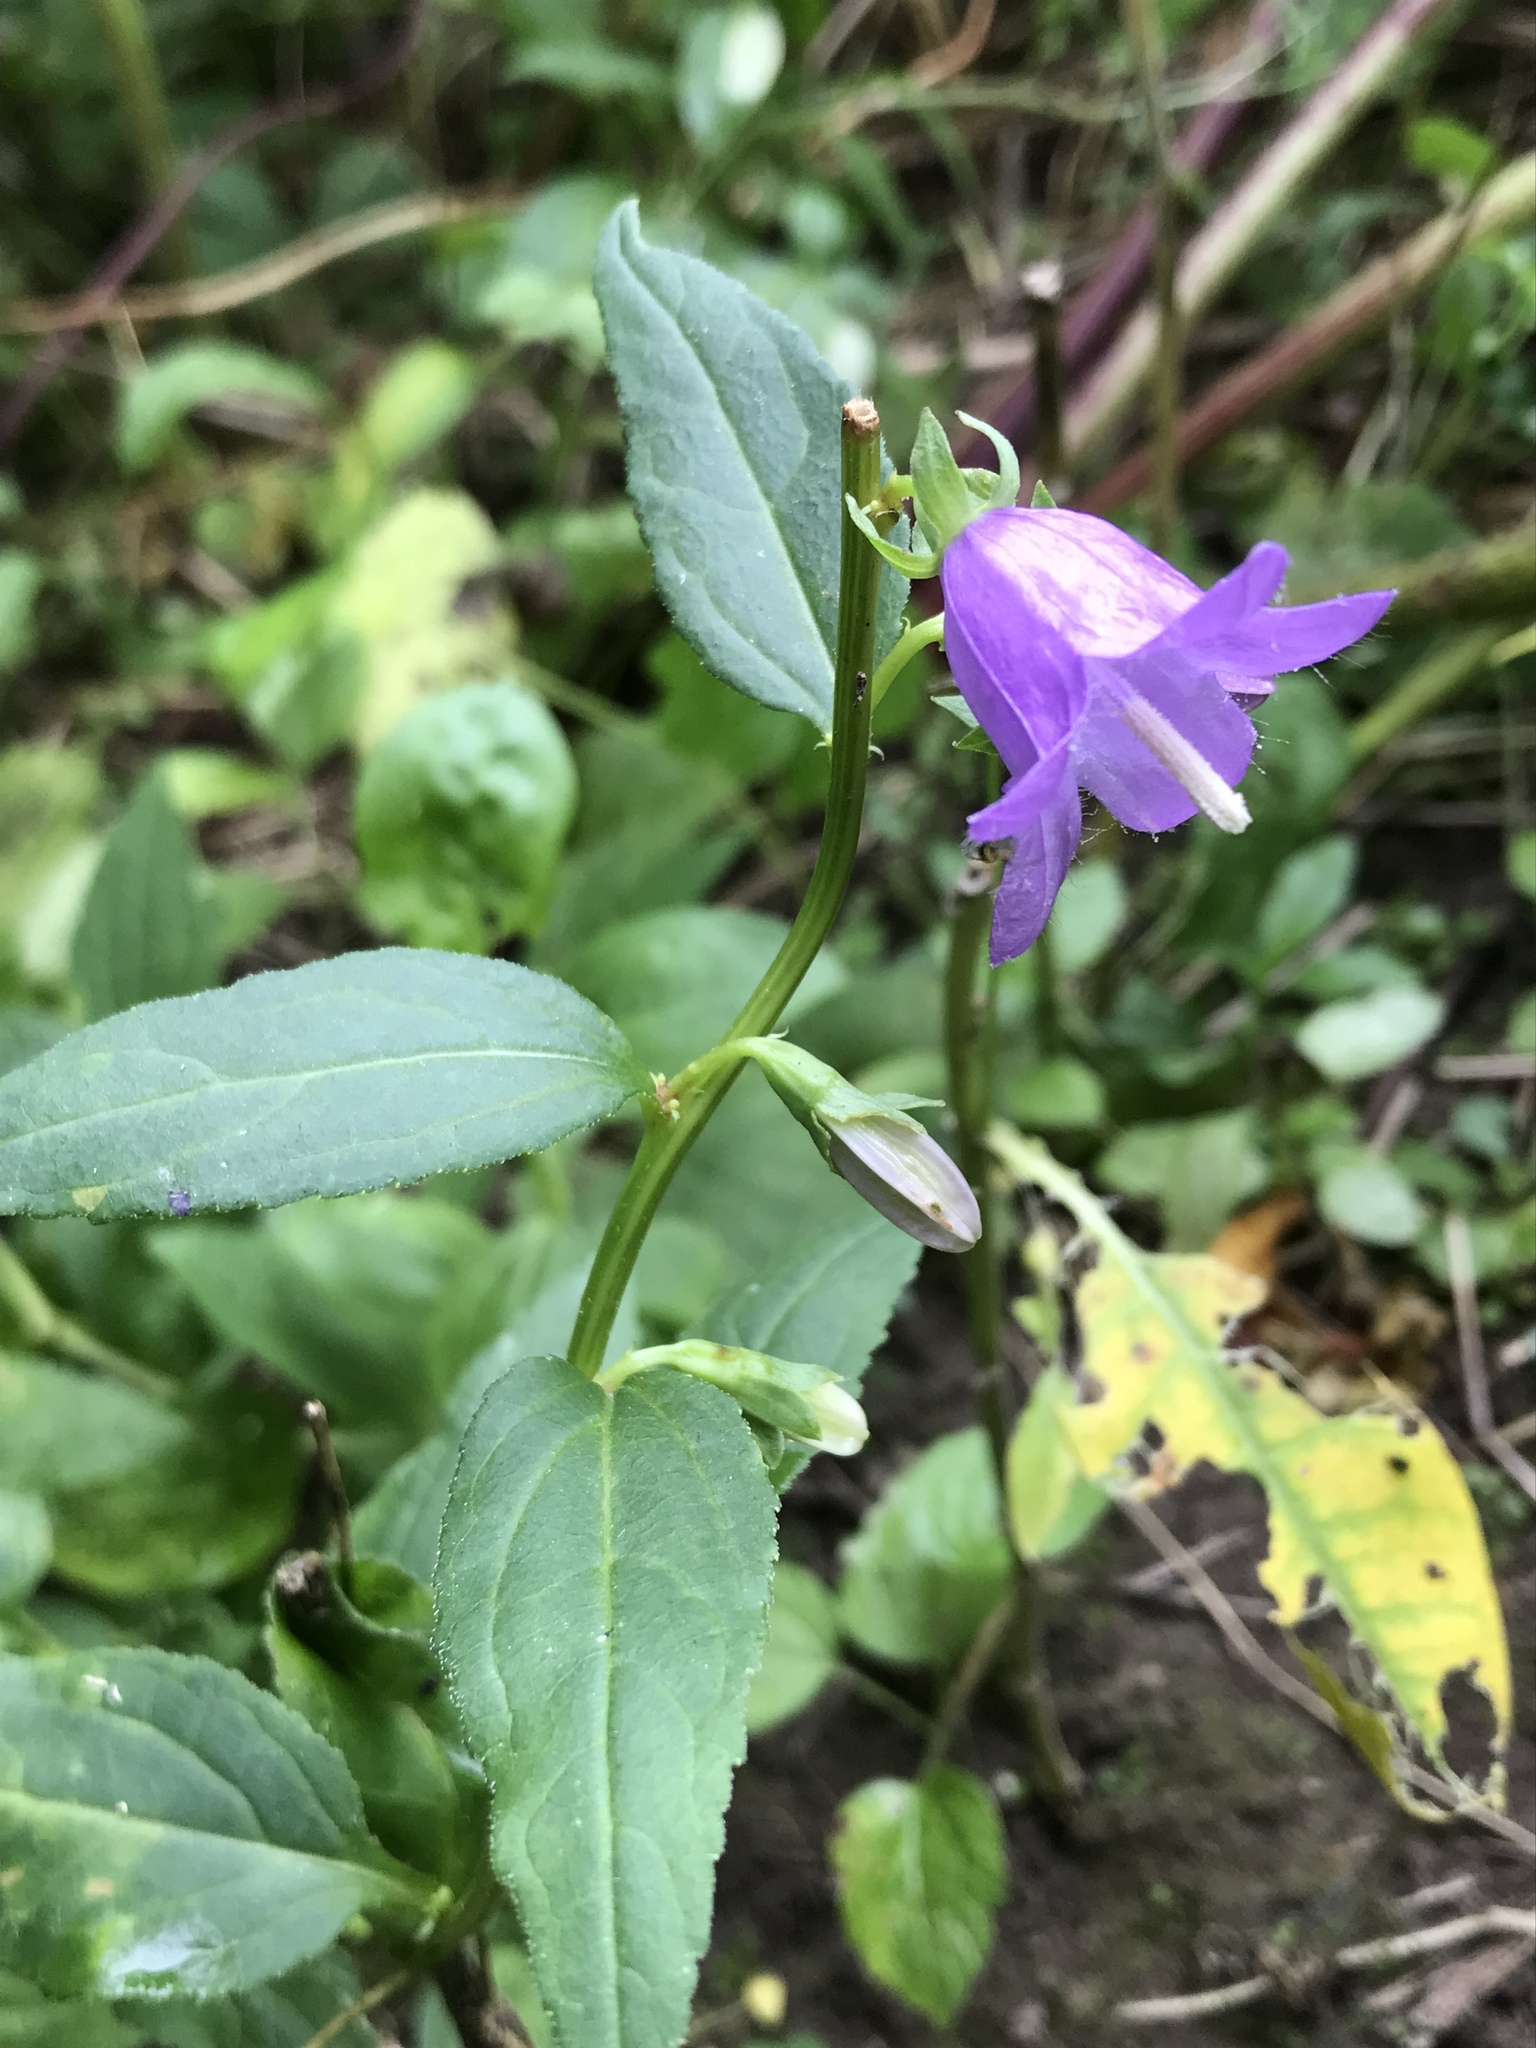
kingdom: Plantae
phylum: Tracheophyta
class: Magnoliopsida
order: Asterales
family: Campanulaceae
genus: Campanula
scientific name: Campanula rapunculoides
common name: Creeping bellflower
